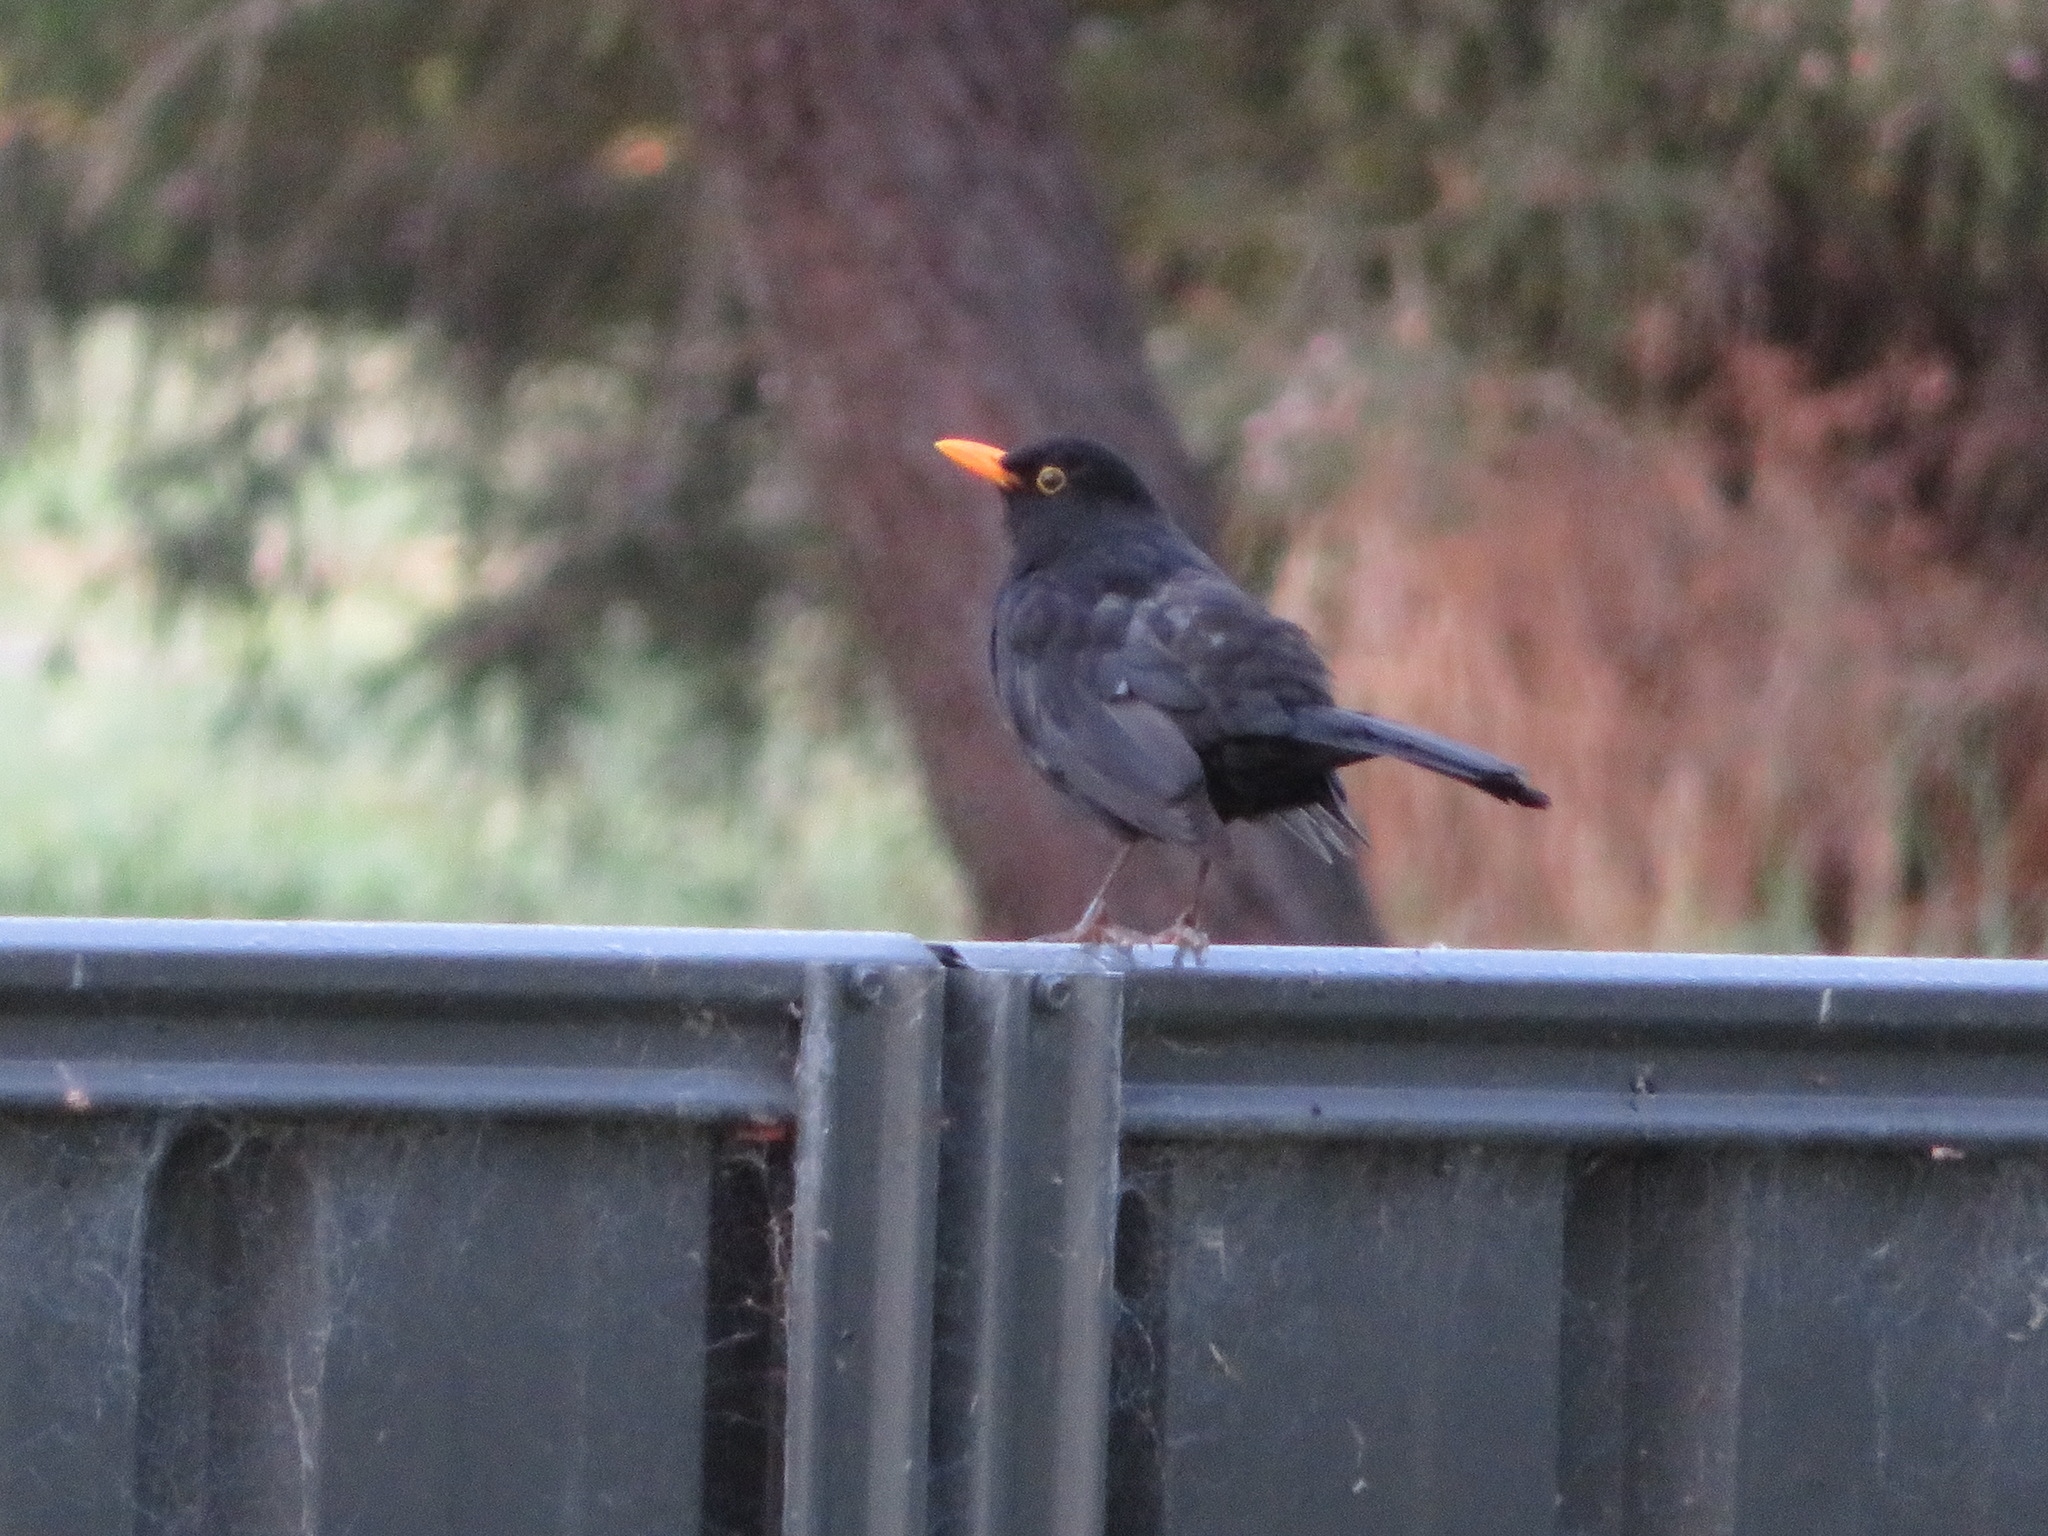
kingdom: Animalia
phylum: Chordata
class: Aves
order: Passeriformes
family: Turdidae
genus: Turdus
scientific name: Turdus merula
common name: Common blackbird
